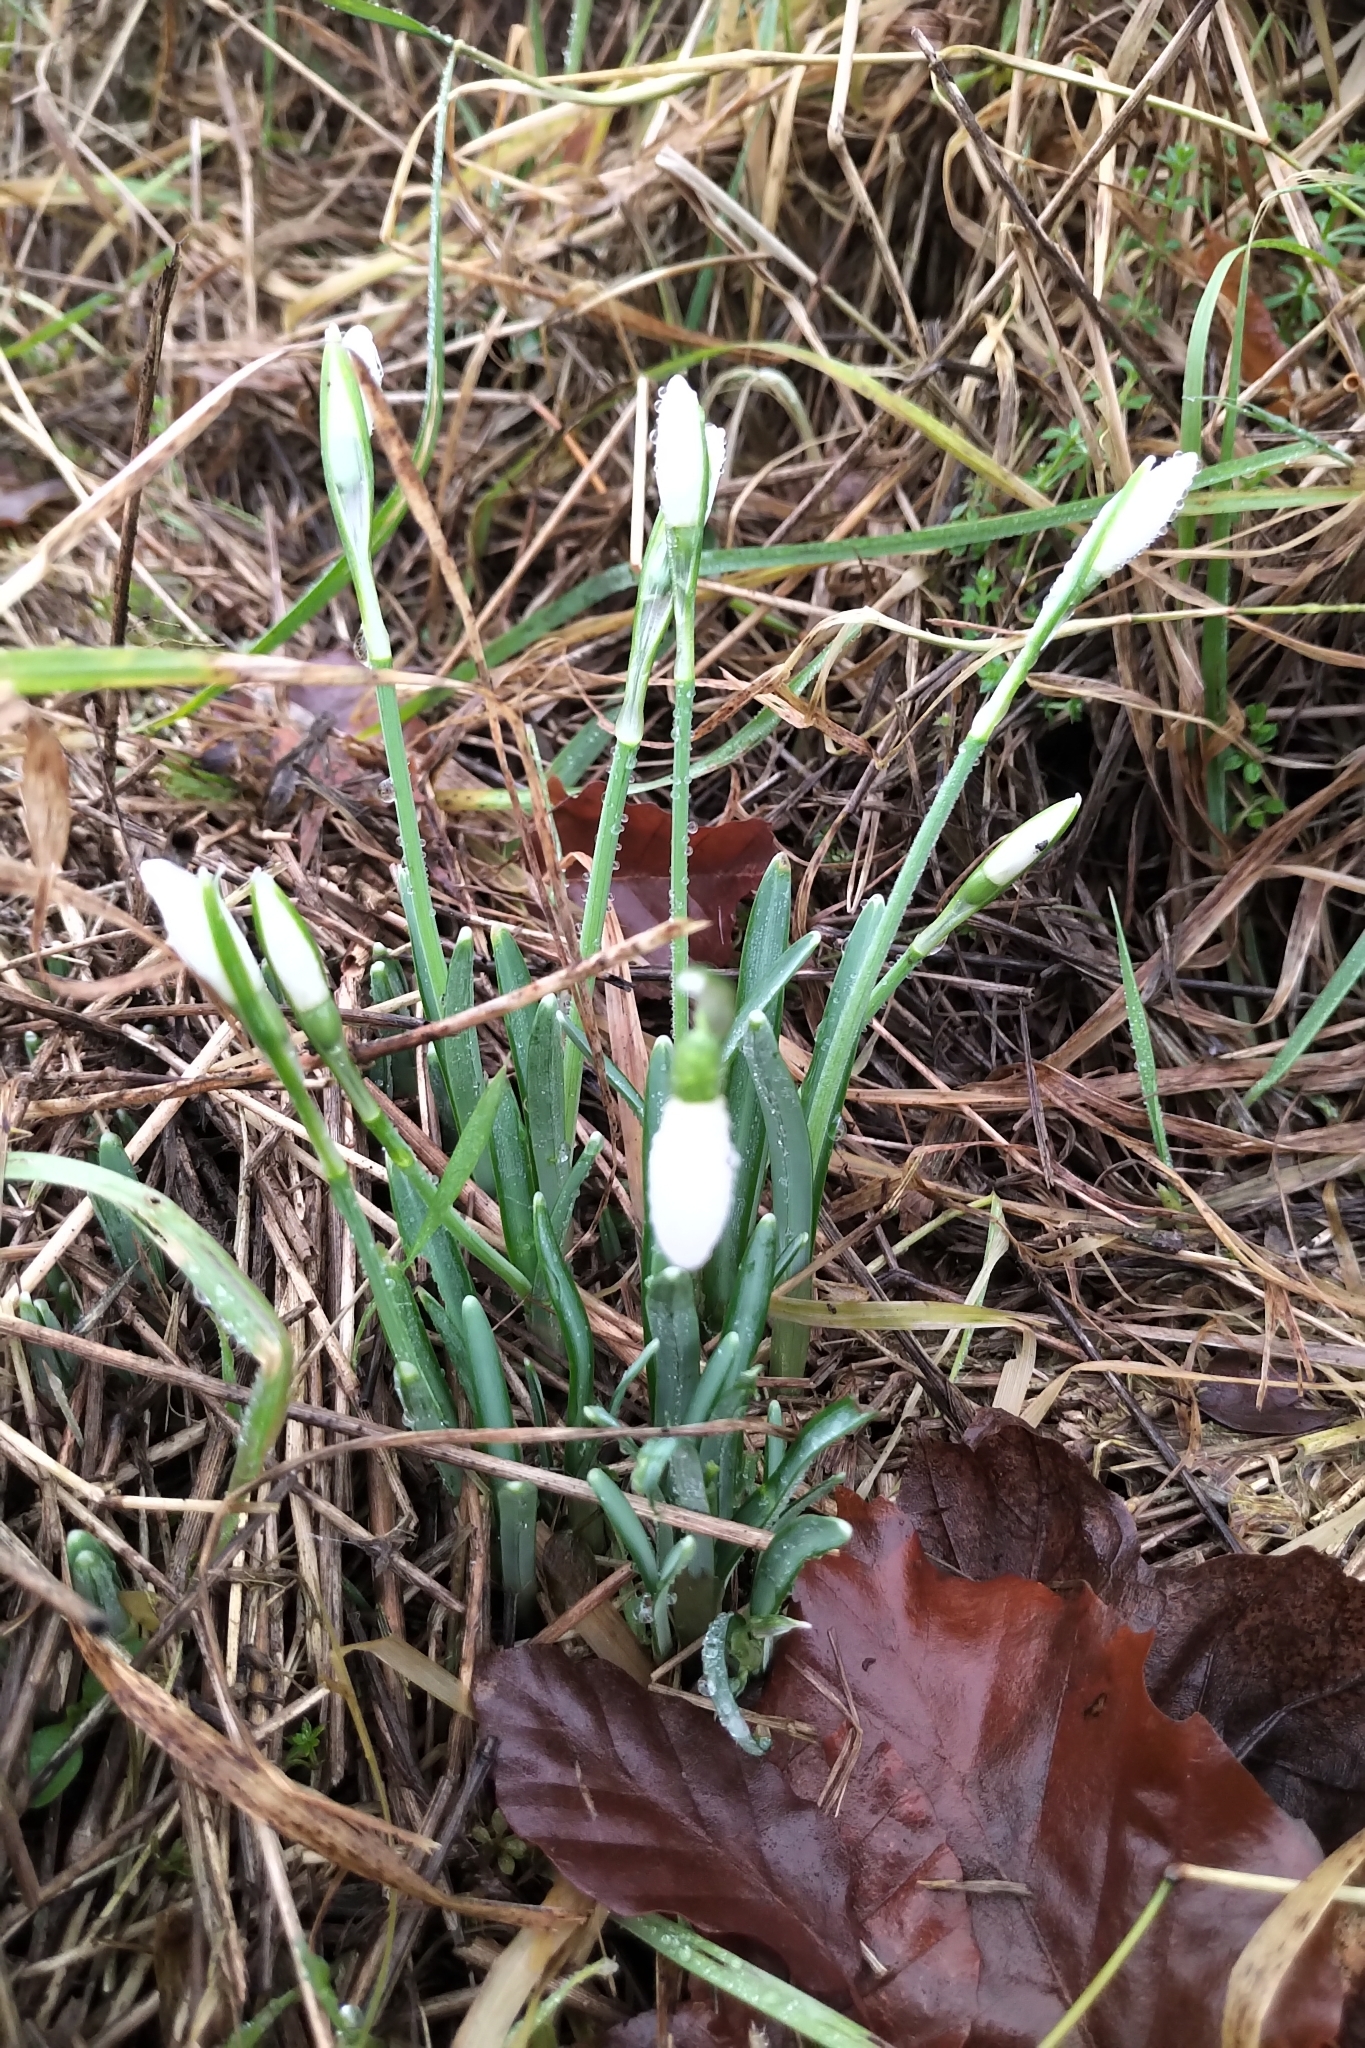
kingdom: Plantae
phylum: Tracheophyta
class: Liliopsida
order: Asparagales
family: Amaryllidaceae
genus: Galanthus
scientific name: Galanthus nivalis
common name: Snowdrop
